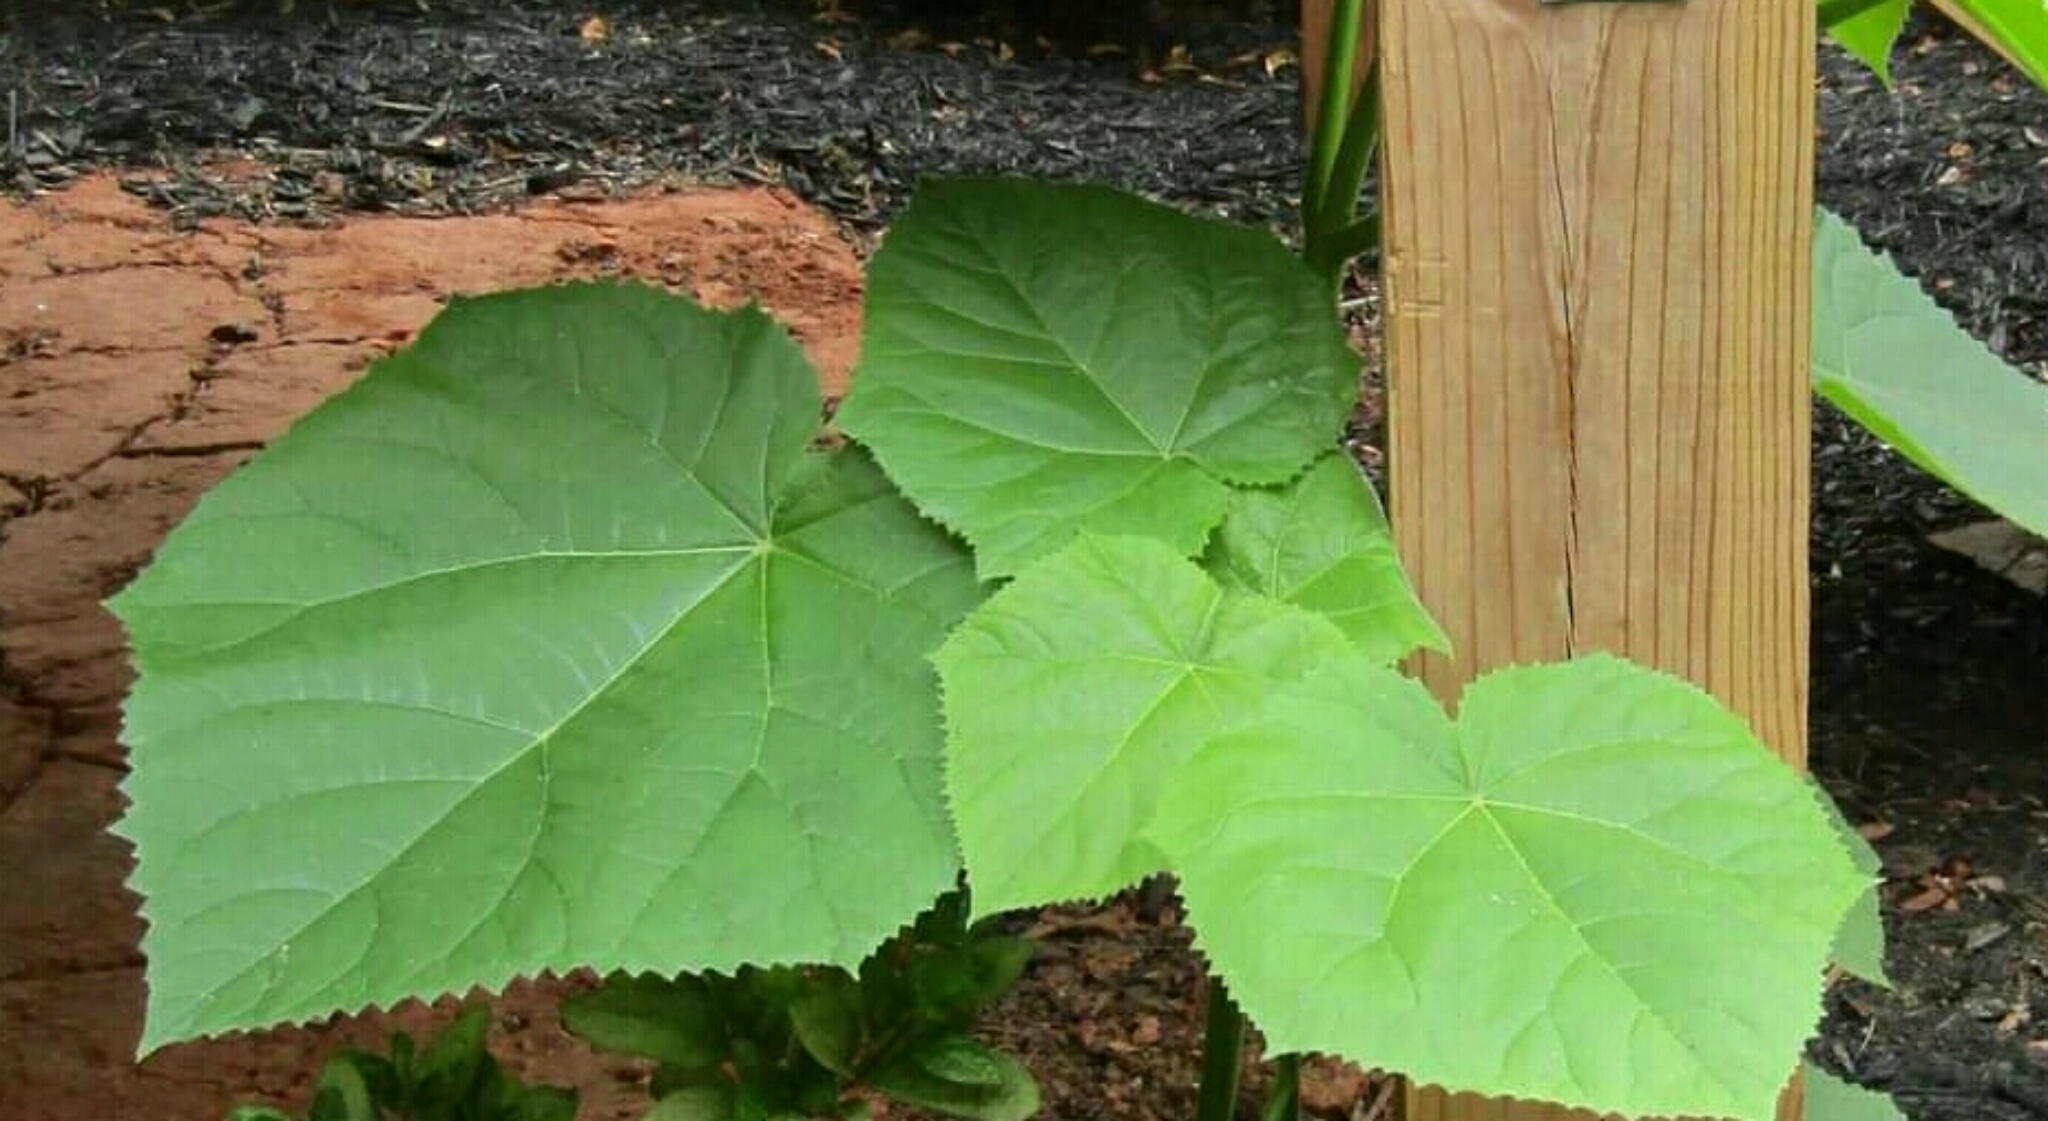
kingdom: Plantae
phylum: Tracheophyta
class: Magnoliopsida
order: Lamiales
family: Paulowniaceae
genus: Paulownia
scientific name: Paulownia tomentosa
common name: Foxglove-tree
